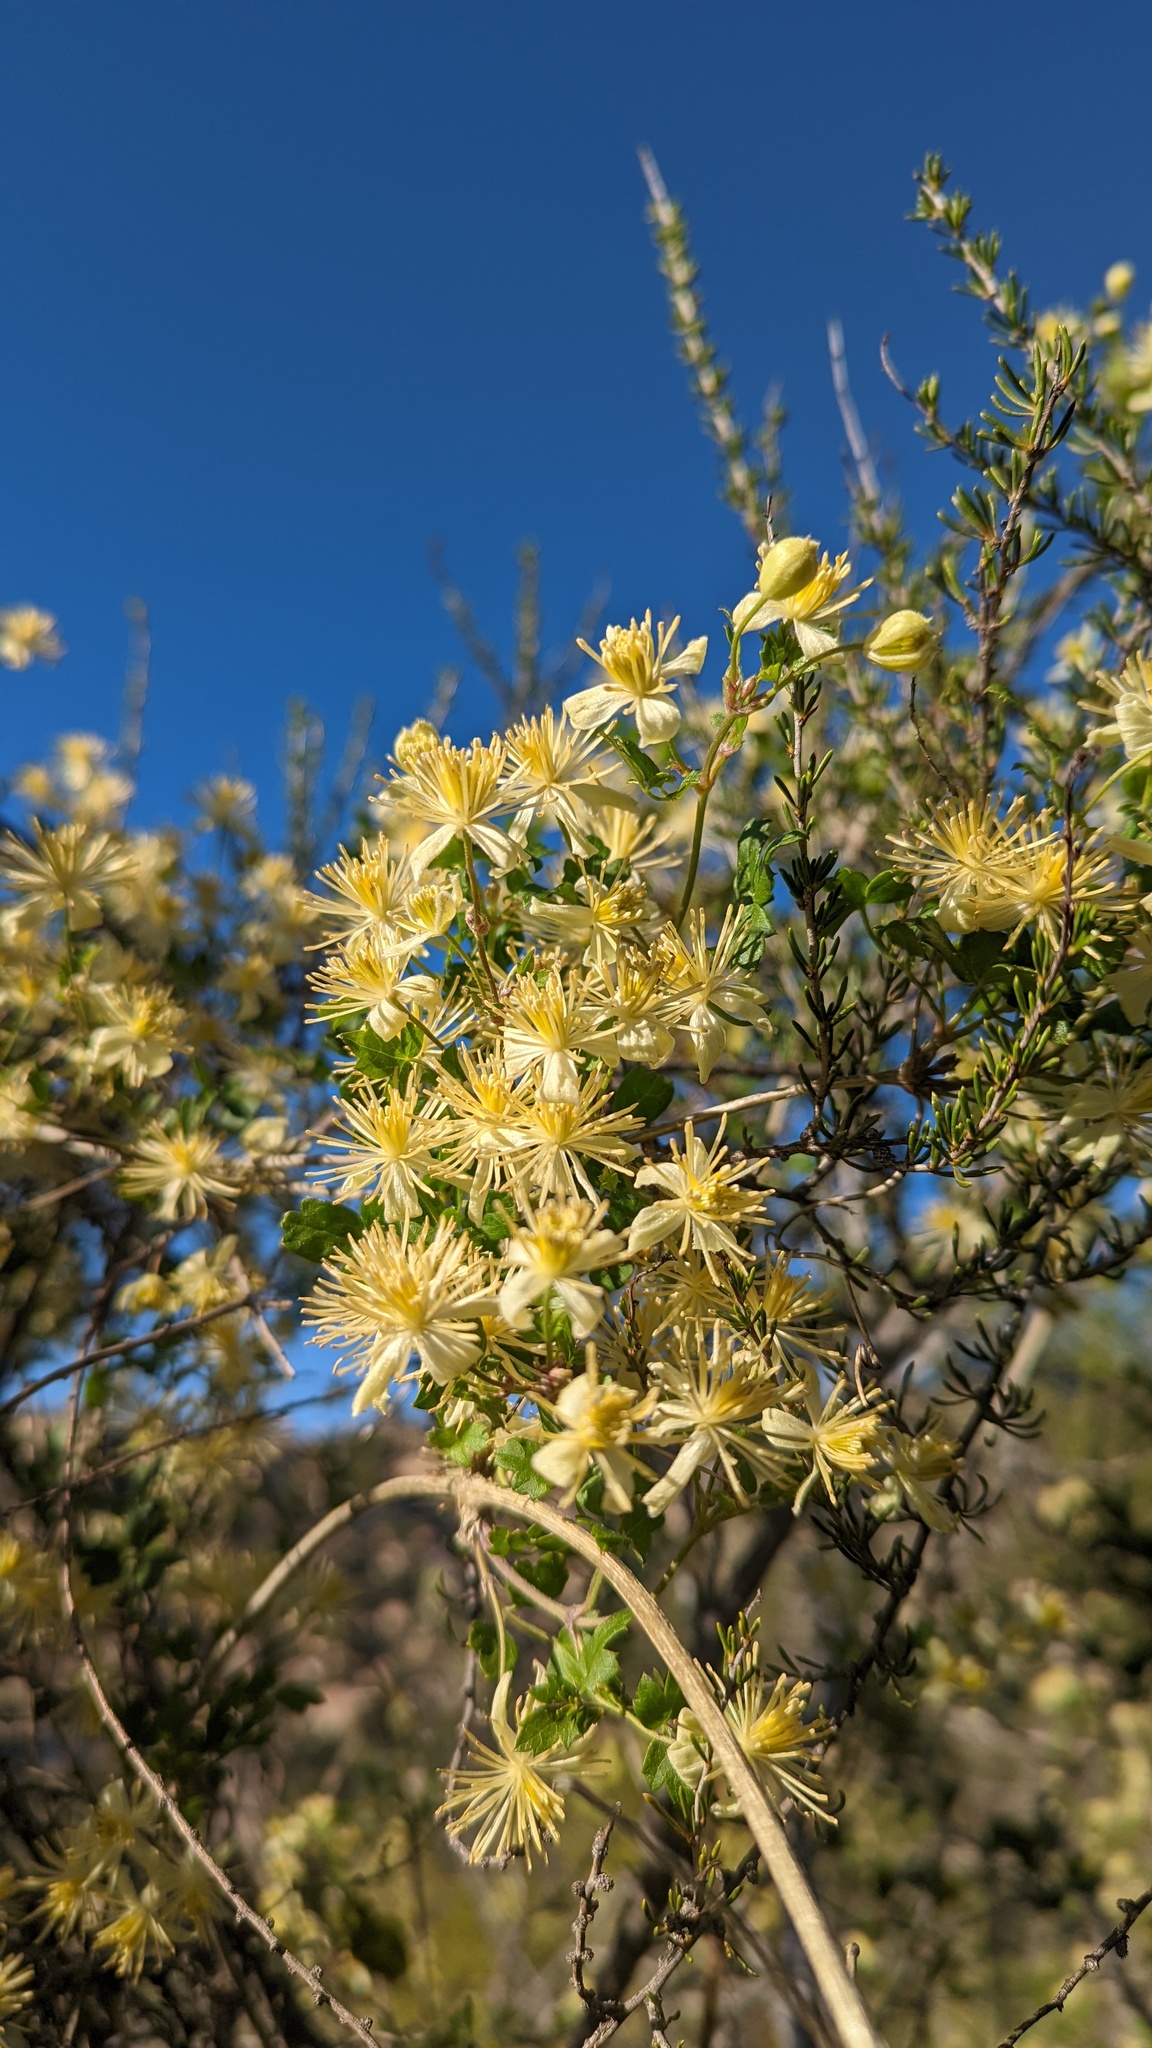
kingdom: Plantae
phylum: Tracheophyta
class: Magnoliopsida
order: Ranunculales
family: Ranunculaceae
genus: Clematis
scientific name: Clematis pauciflora
